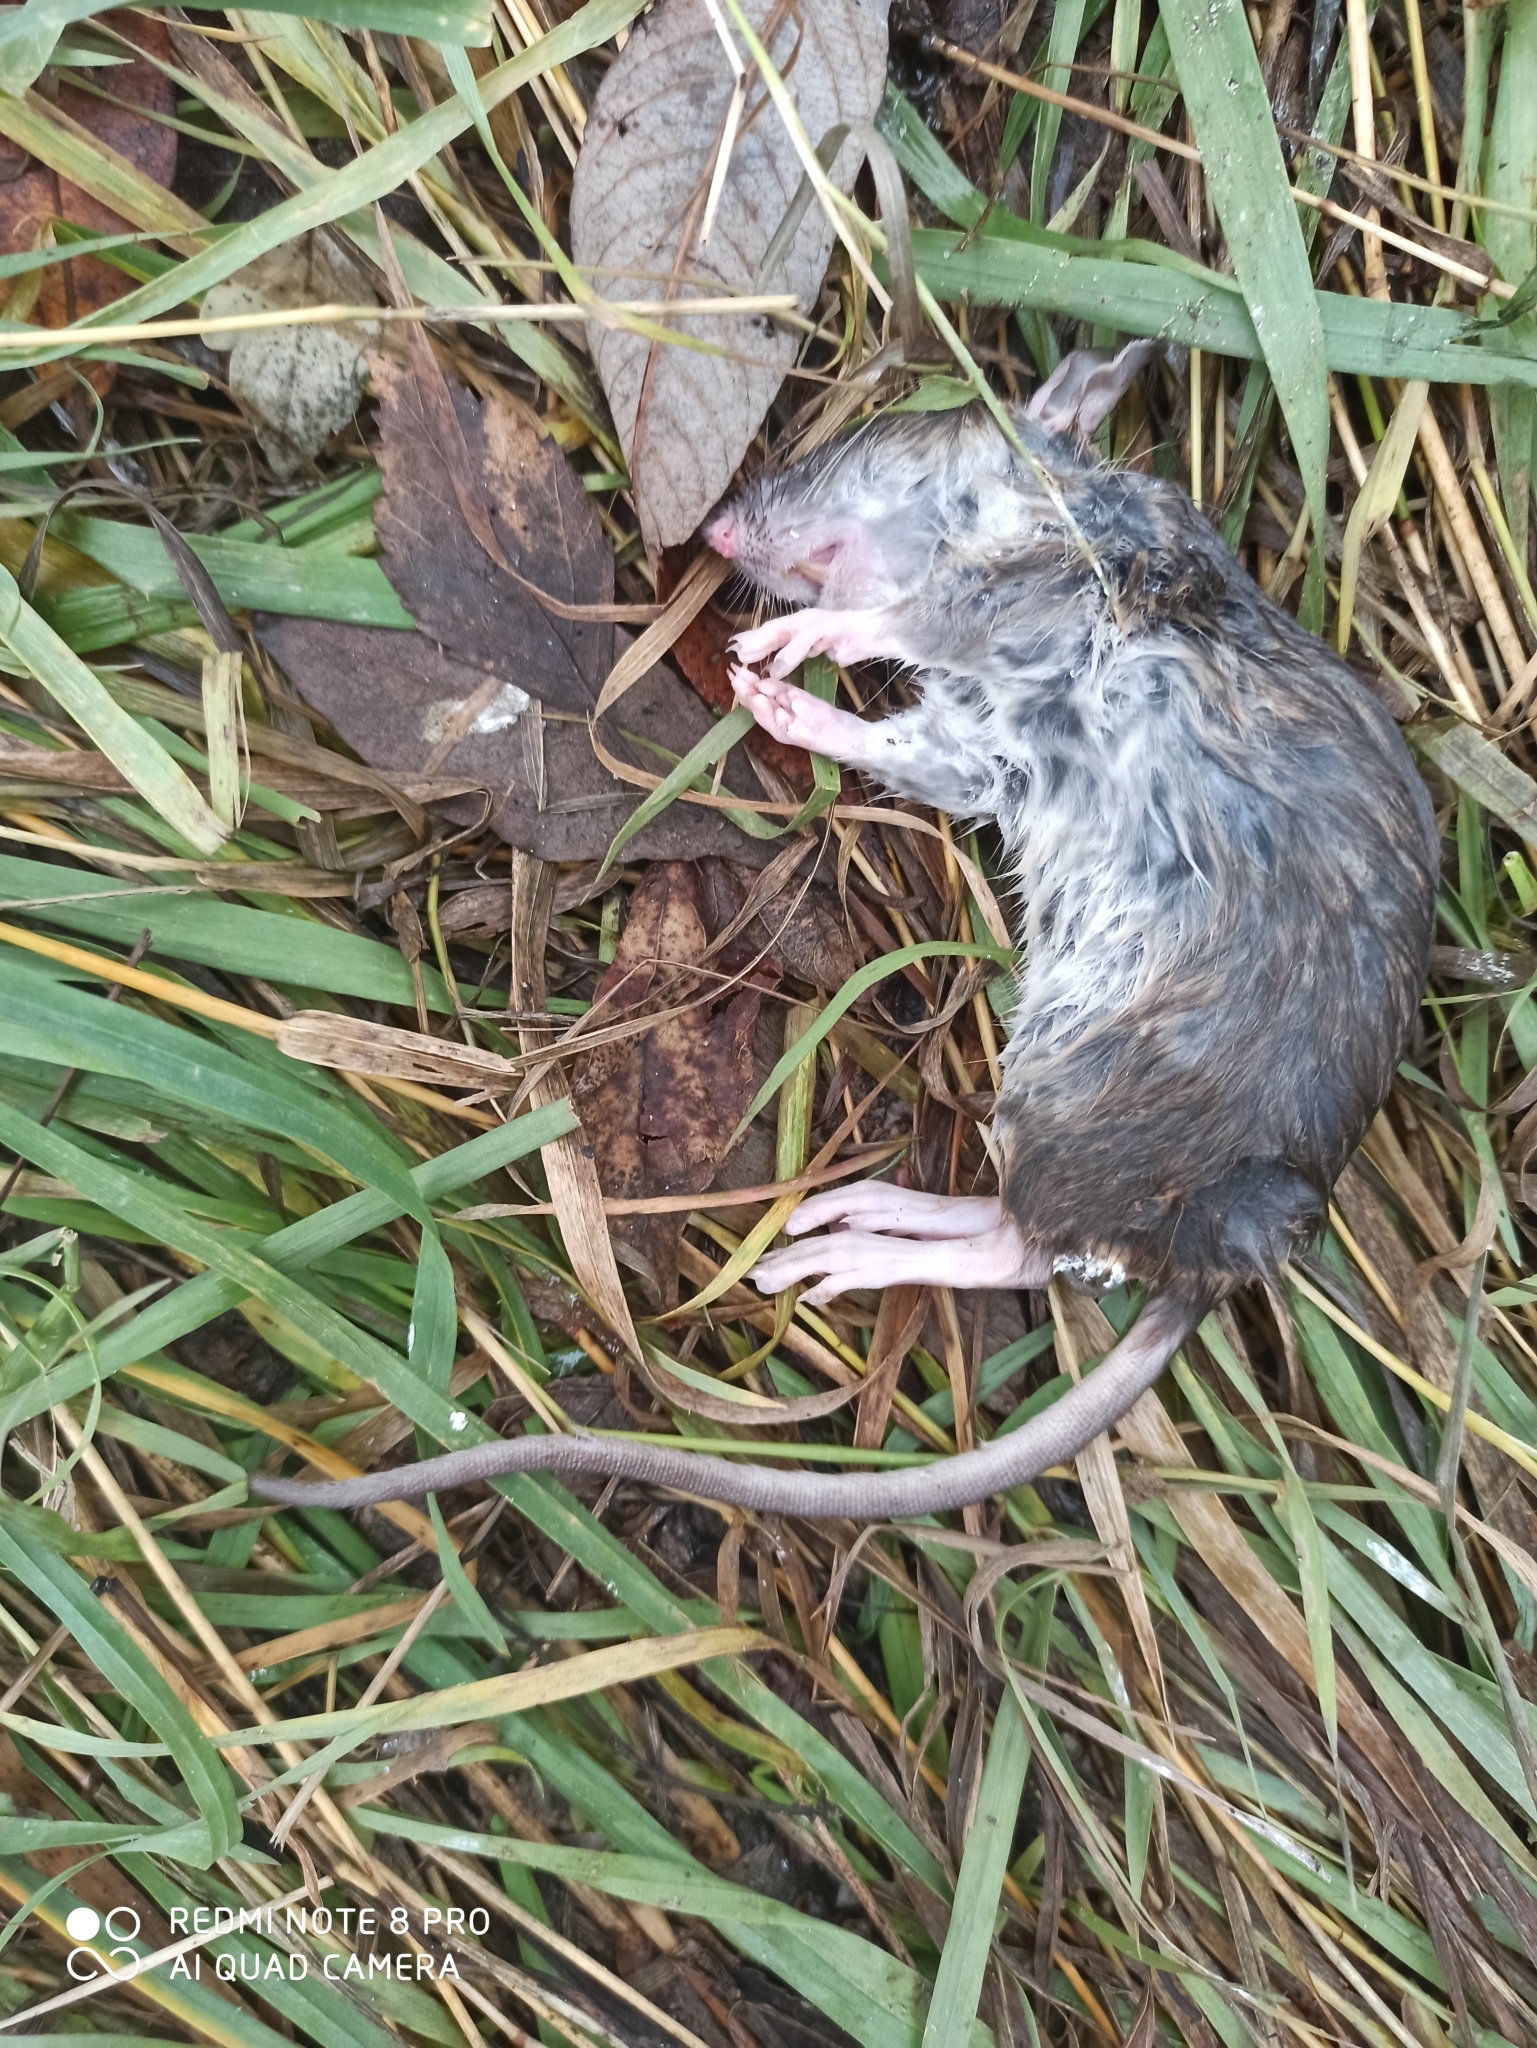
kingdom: Animalia
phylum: Chordata
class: Mammalia
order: Rodentia
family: Muridae
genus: Rattus
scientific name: Rattus norvegicus
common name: Brown rat
